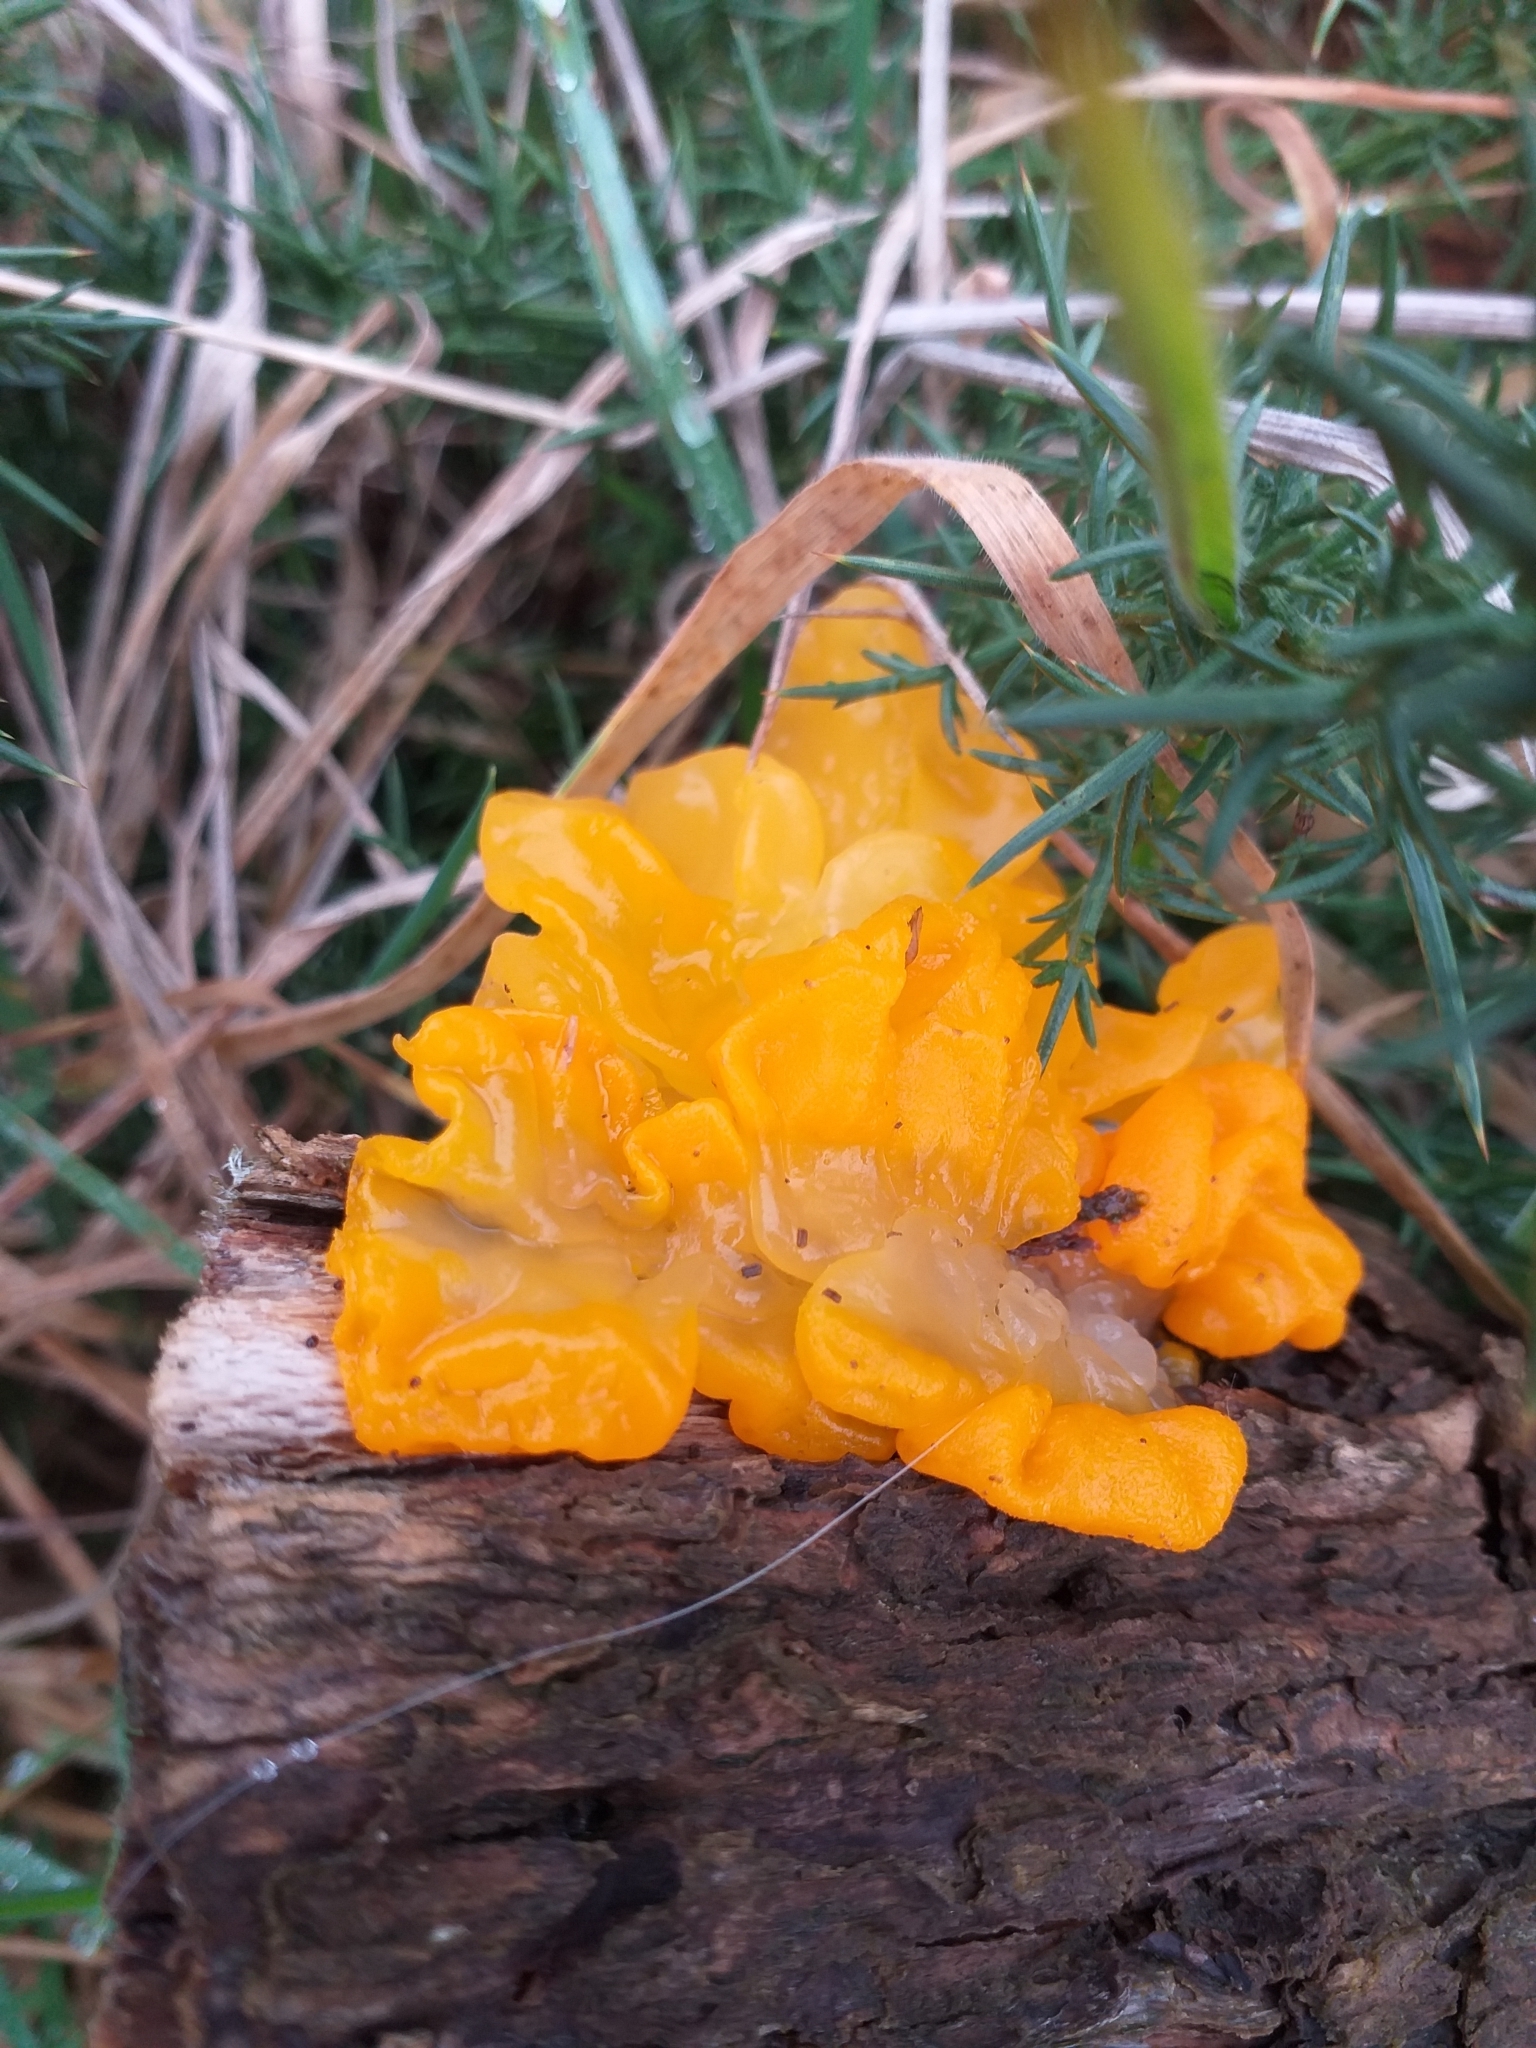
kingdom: Fungi
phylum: Basidiomycota
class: Tremellomycetes
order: Tremellales
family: Tremellaceae
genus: Tremella
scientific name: Tremella mesenterica
